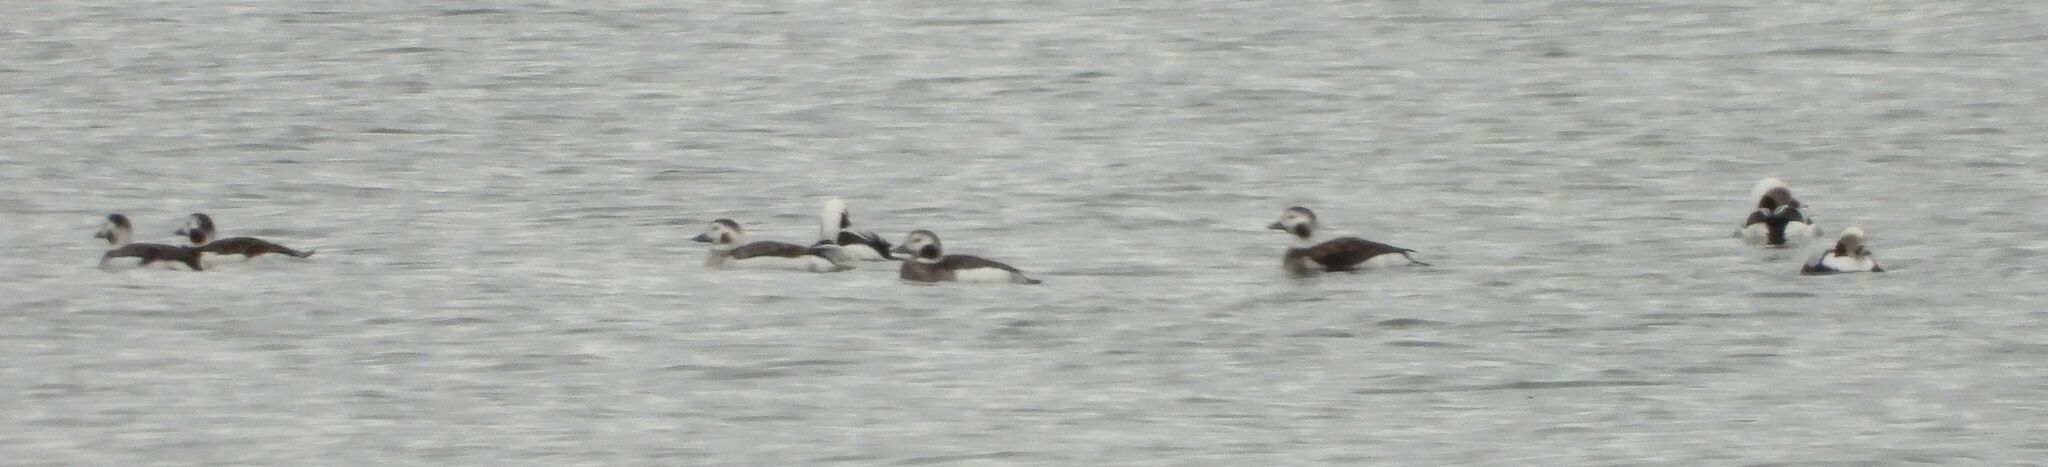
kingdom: Animalia
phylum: Chordata
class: Aves
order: Anseriformes
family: Anatidae
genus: Clangula
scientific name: Clangula hyemalis
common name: Long-tailed duck
